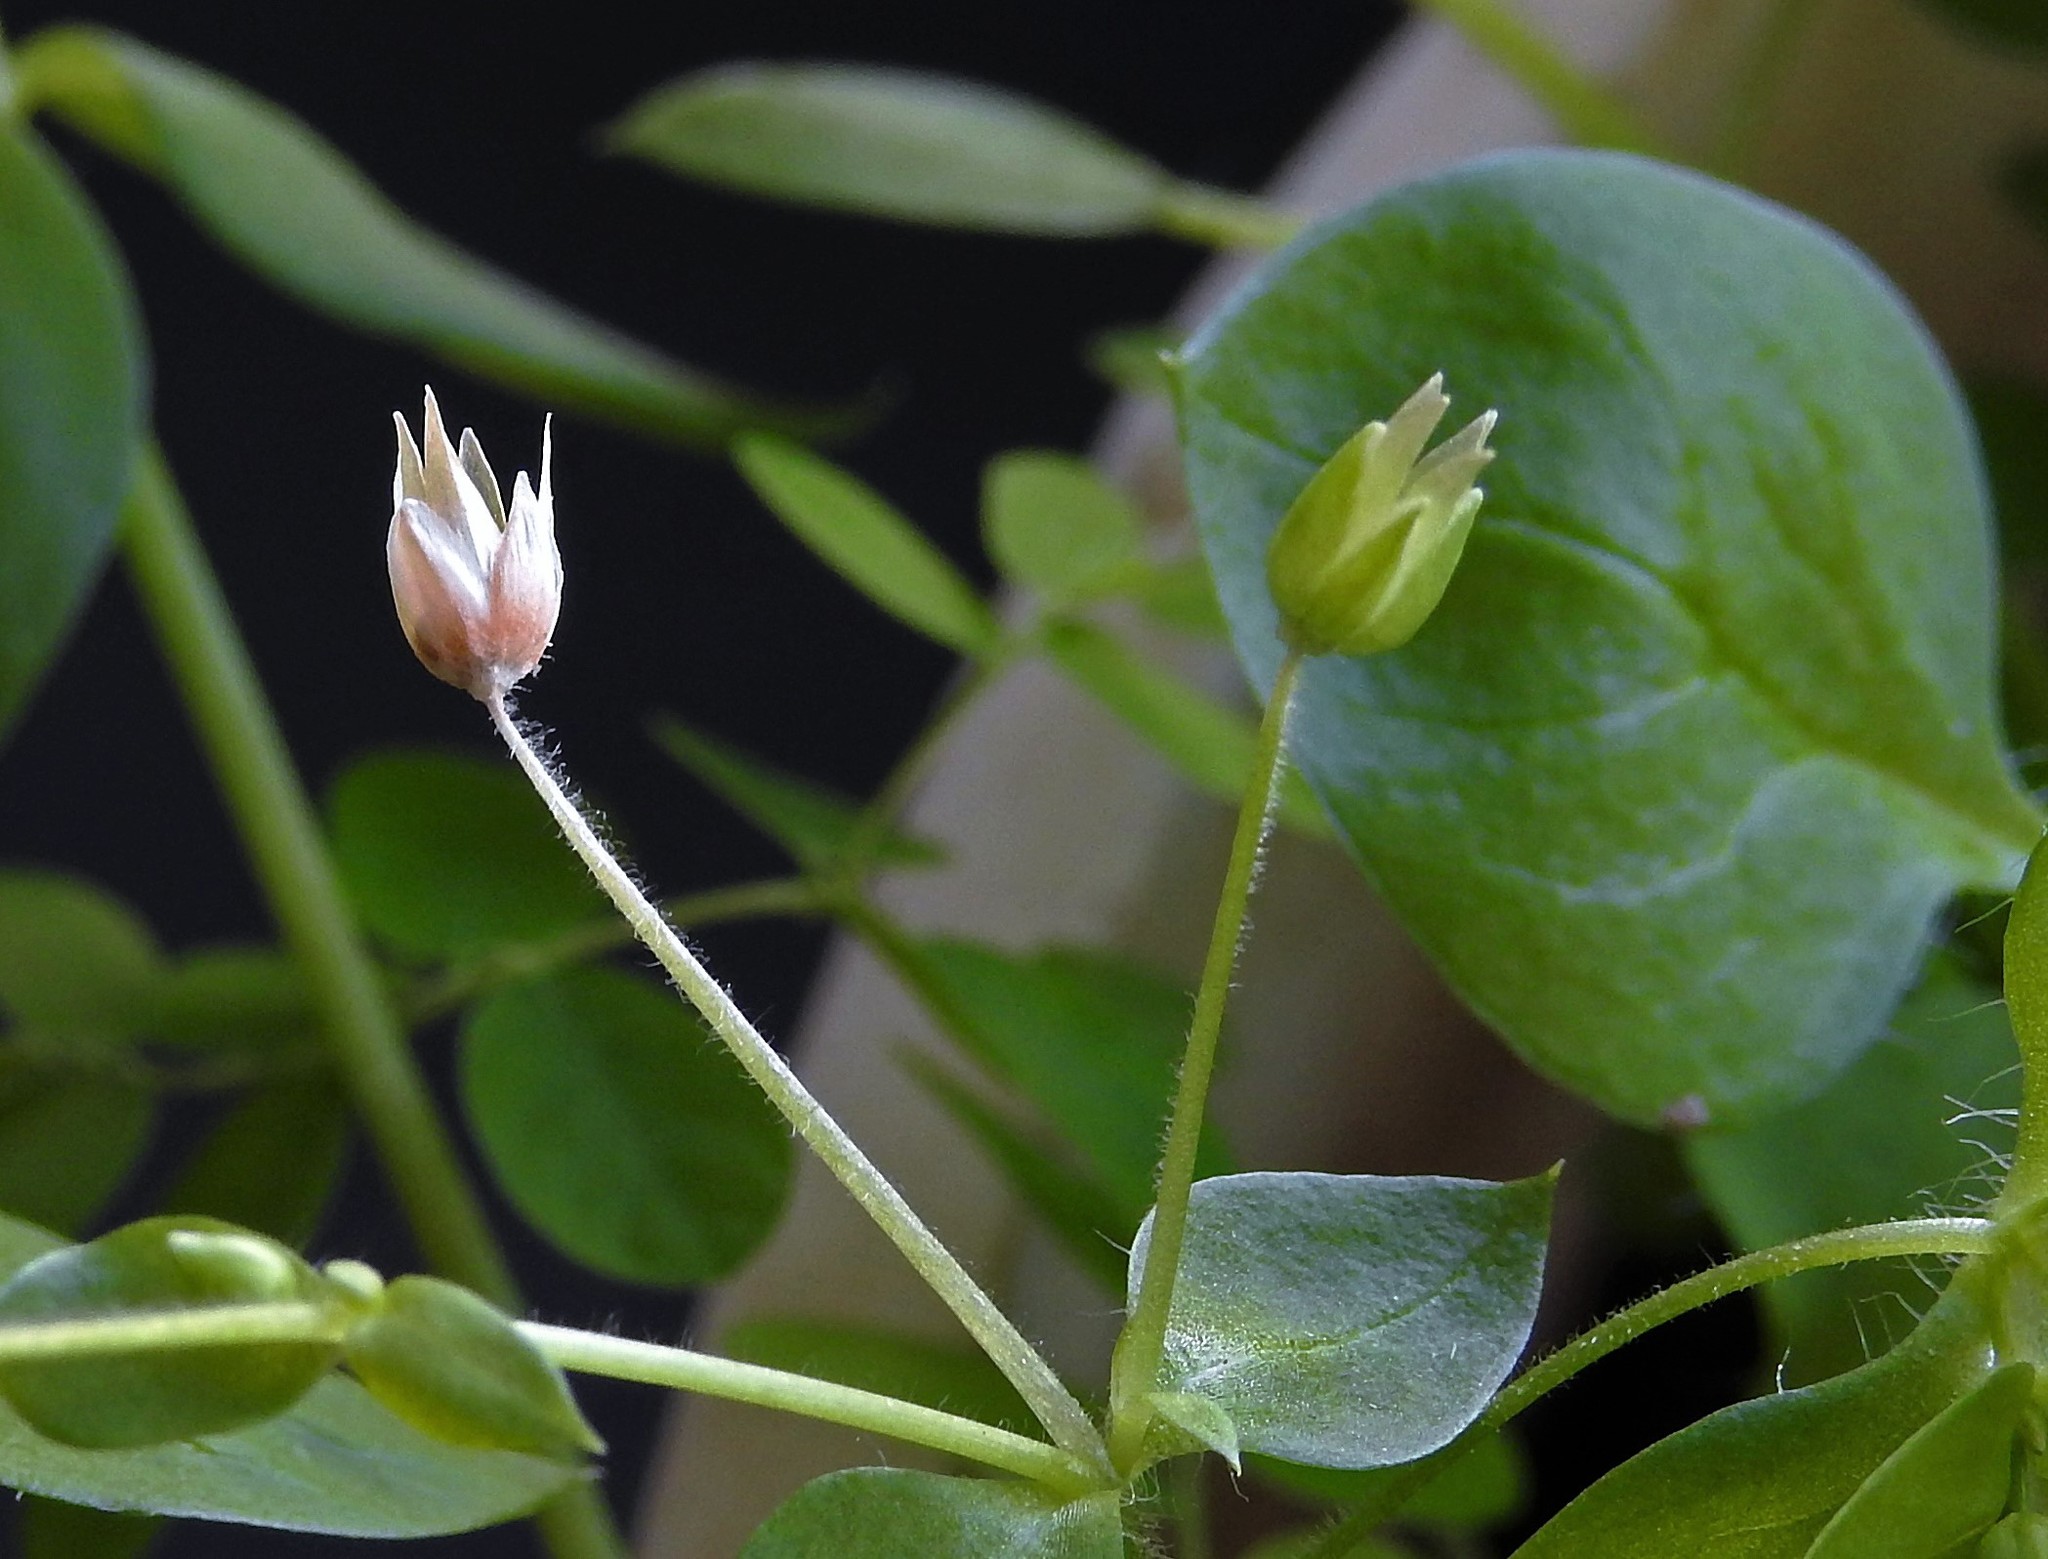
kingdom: Plantae
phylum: Tracheophyta
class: Magnoliopsida
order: Caryophyllales
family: Caryophyllaceae
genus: Stellaria
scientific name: Stellaria media
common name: Common chickweed
